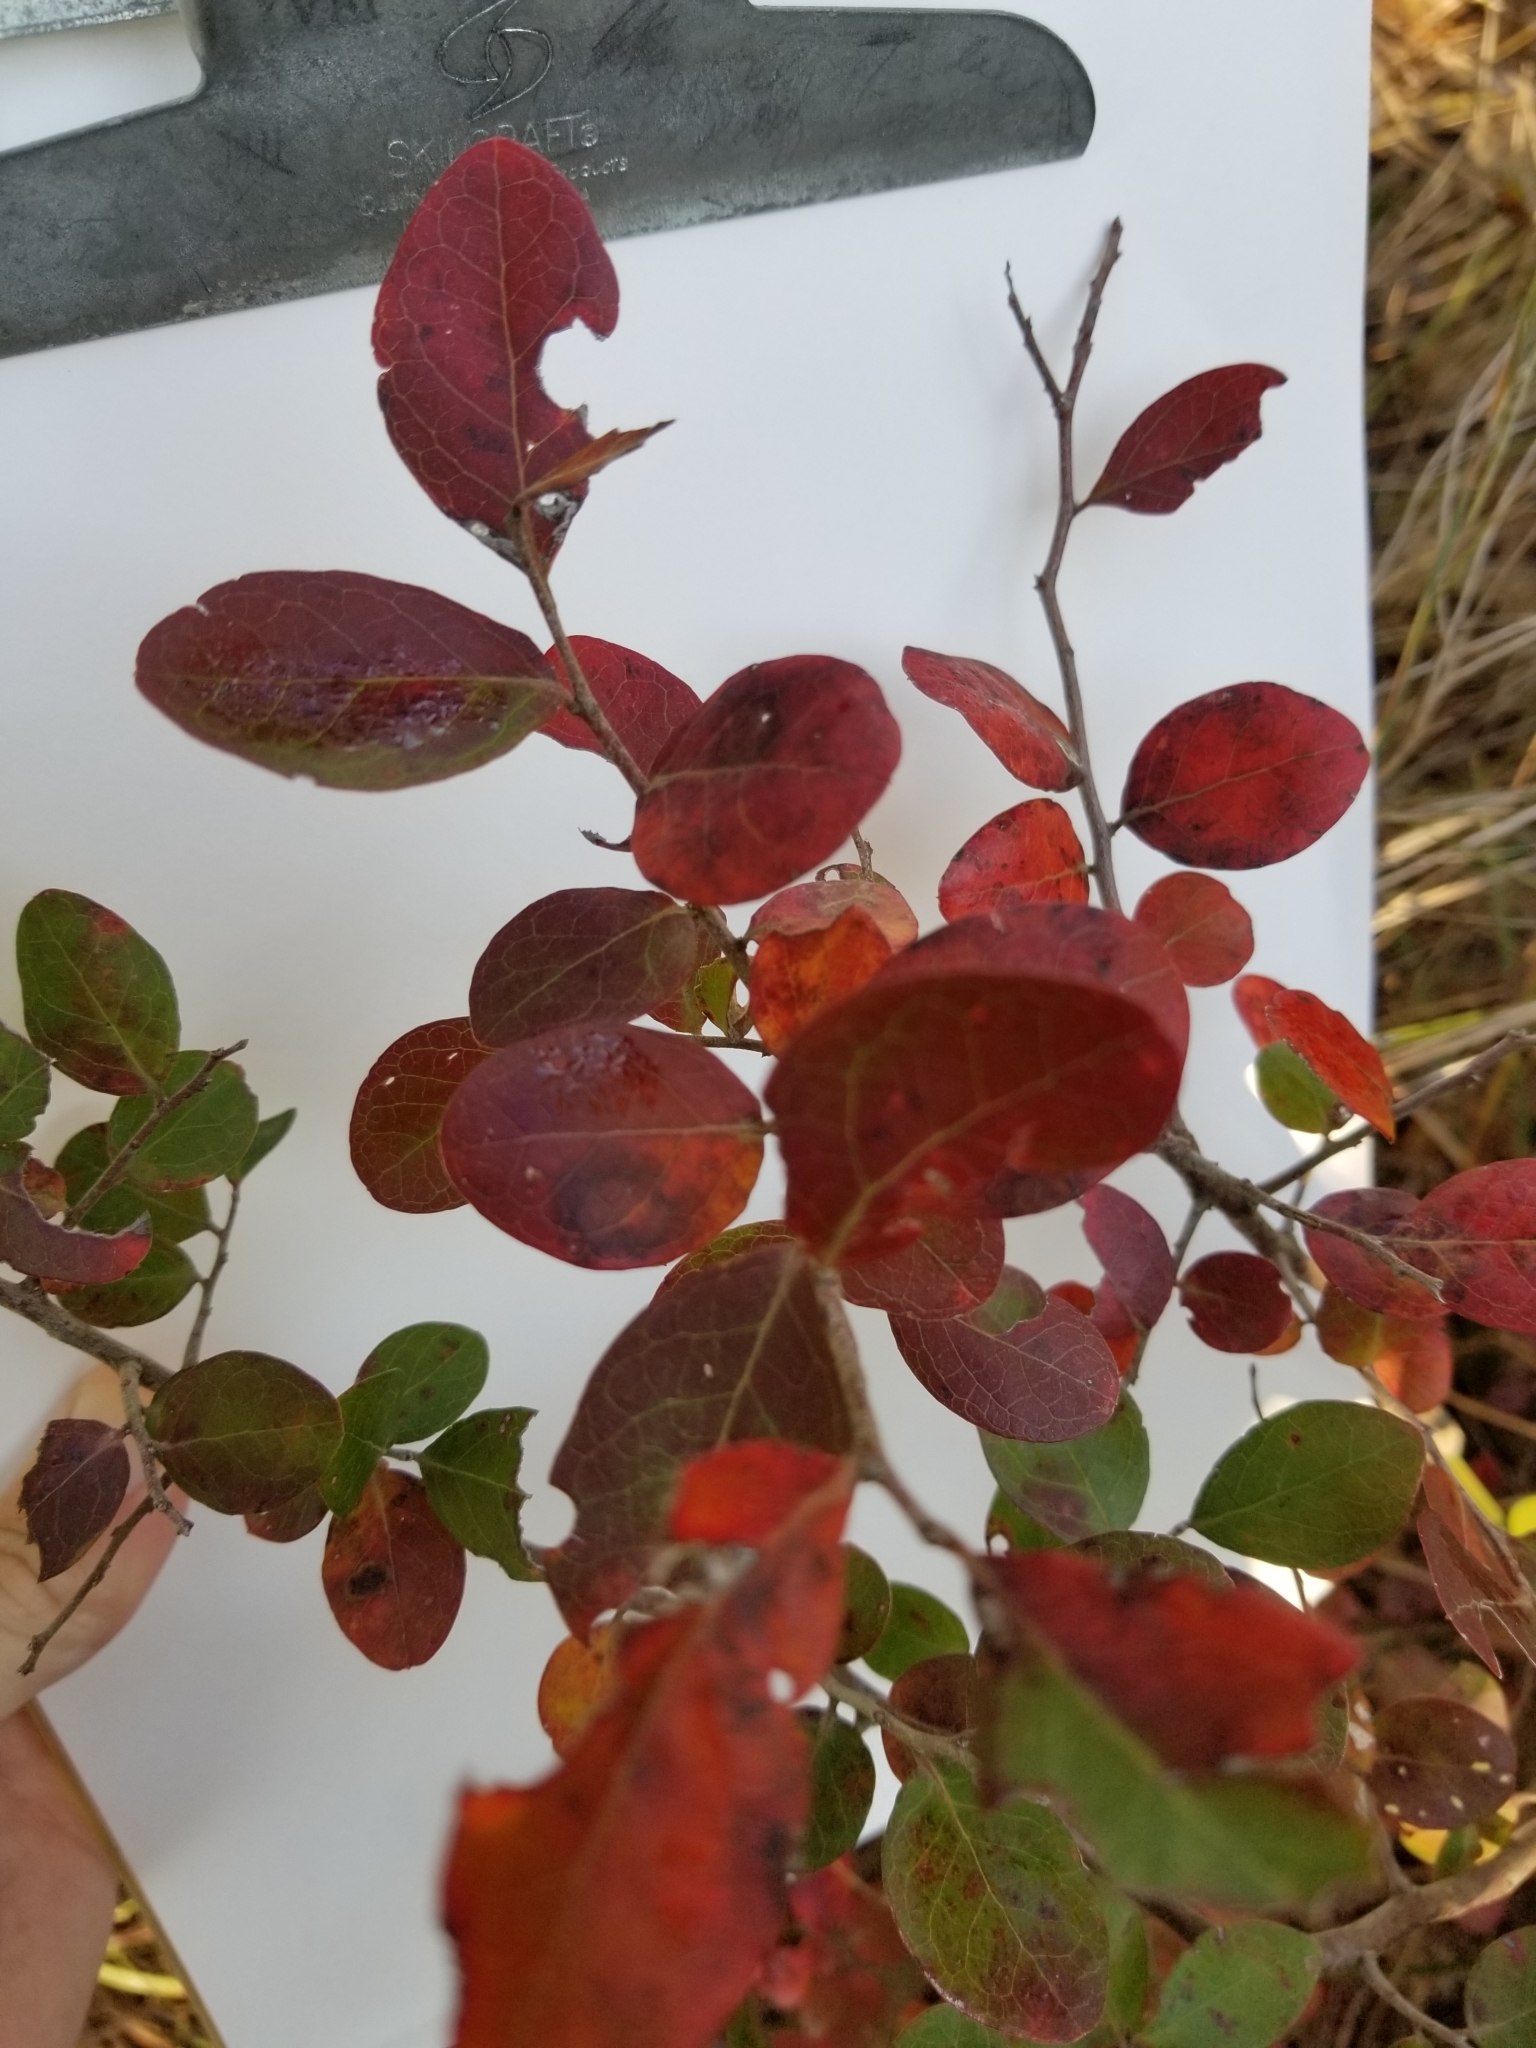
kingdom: Plantae
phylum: Tracheophyta
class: Magnoliopsida
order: Ericales
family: Ericaceae
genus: Vaccinium
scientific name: Vaccinium arboreum
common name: Farkleberry
